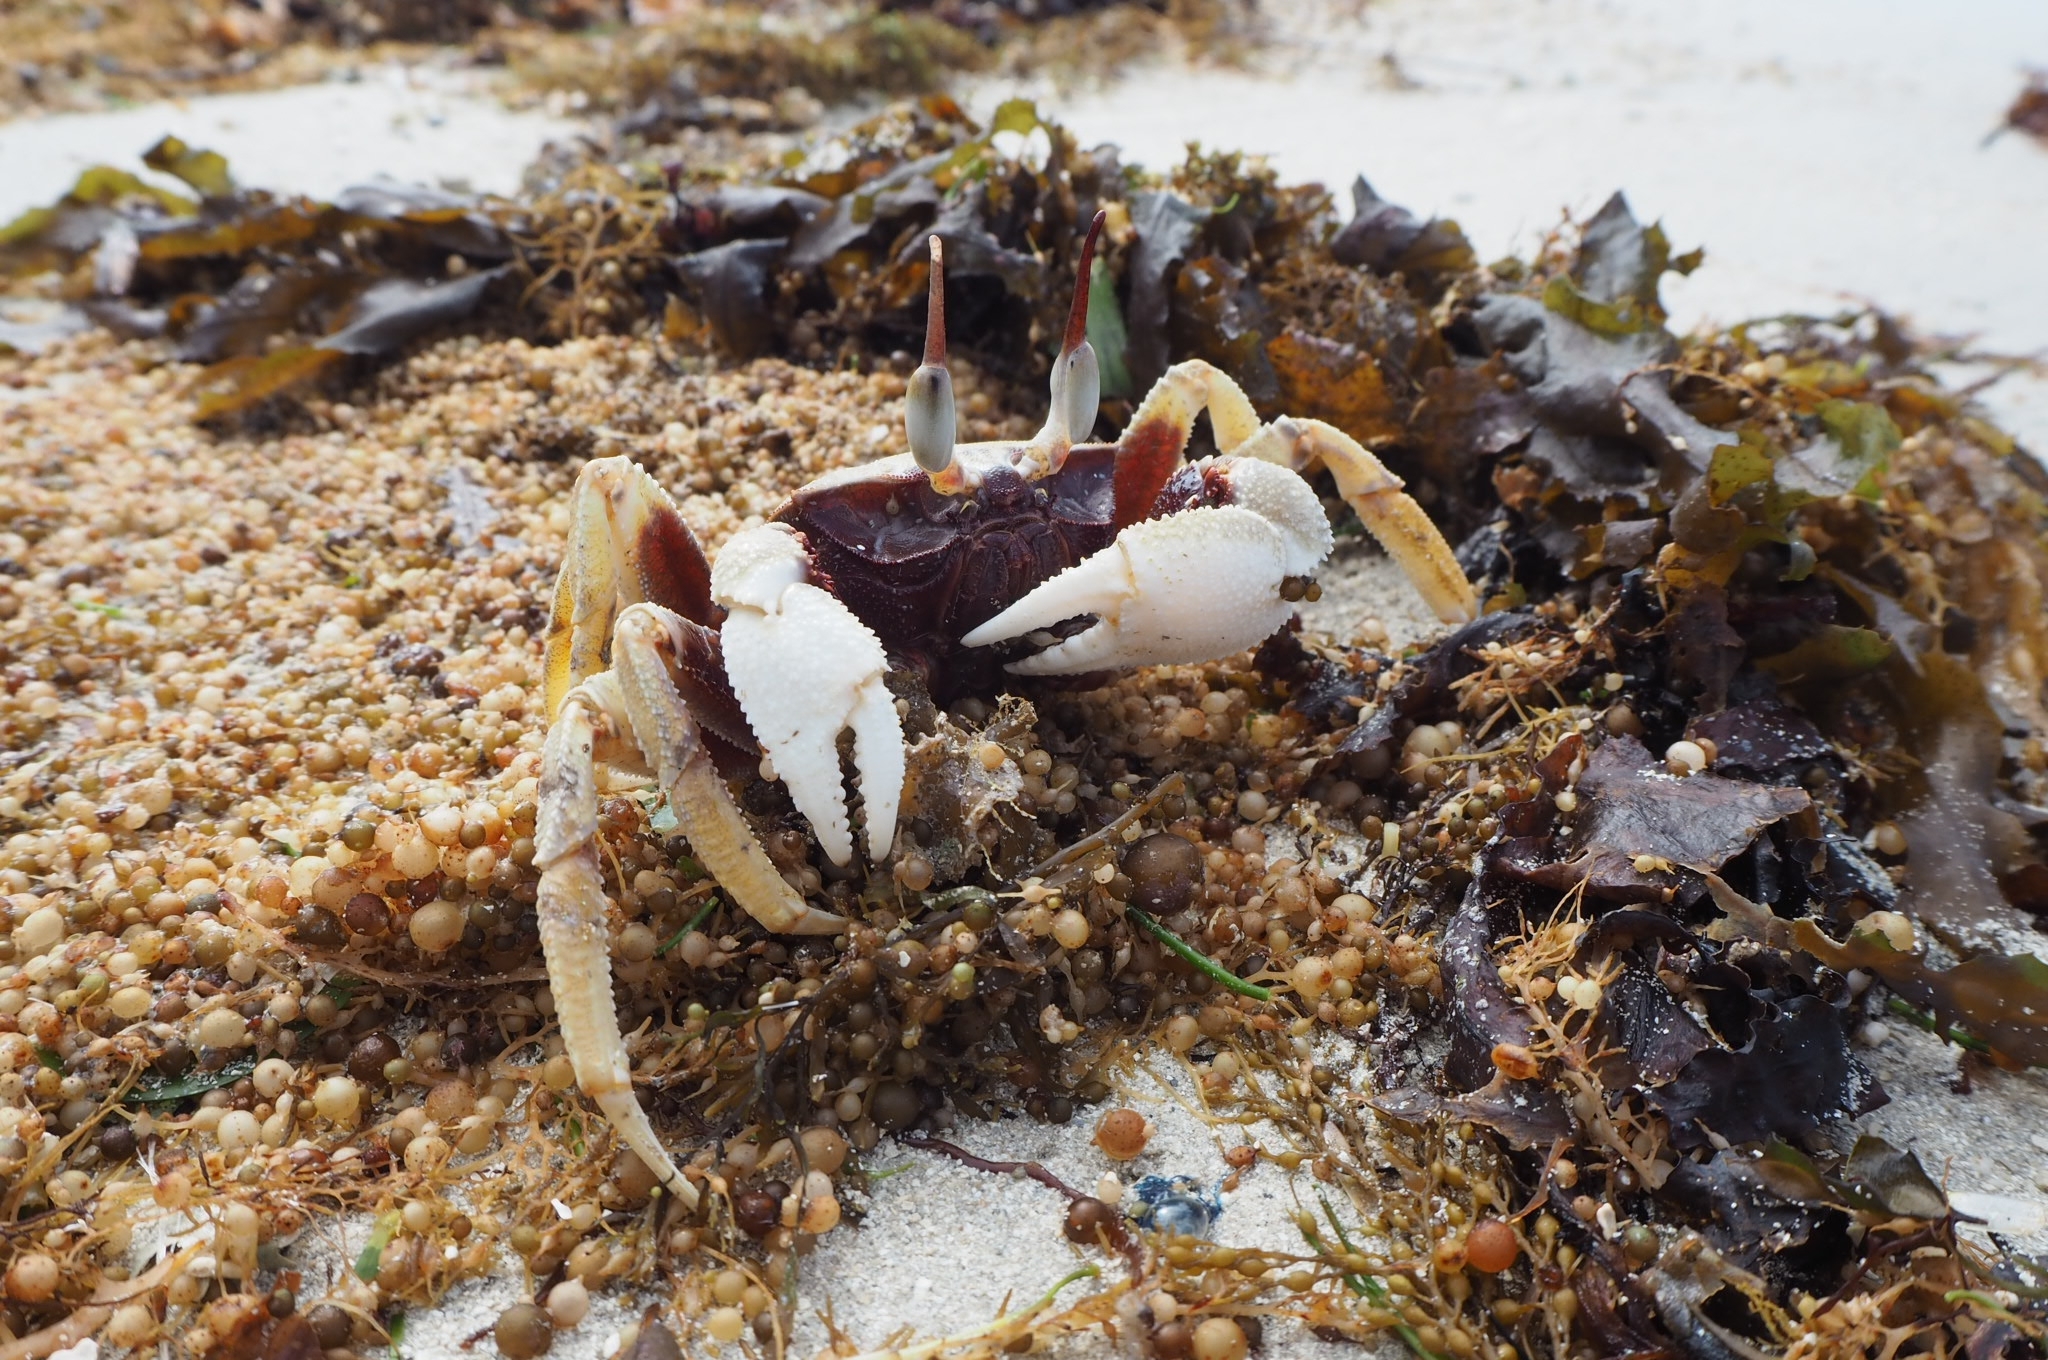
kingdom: Animalia
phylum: Arthropoda
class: Malacostraca
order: Decapoda
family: Ocypodidae
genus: Ocypode
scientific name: Ocypode ceratophthalmus
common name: Indo-pacific ghost crab
